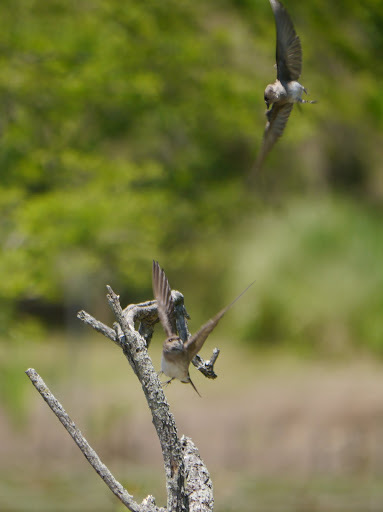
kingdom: Animalia
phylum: Chordata
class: Aves
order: Passeriformes
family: Hirundinidae
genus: Stelgidopteryx
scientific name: Stelgidopteryx serripennis
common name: Northern rough-winged swallow
